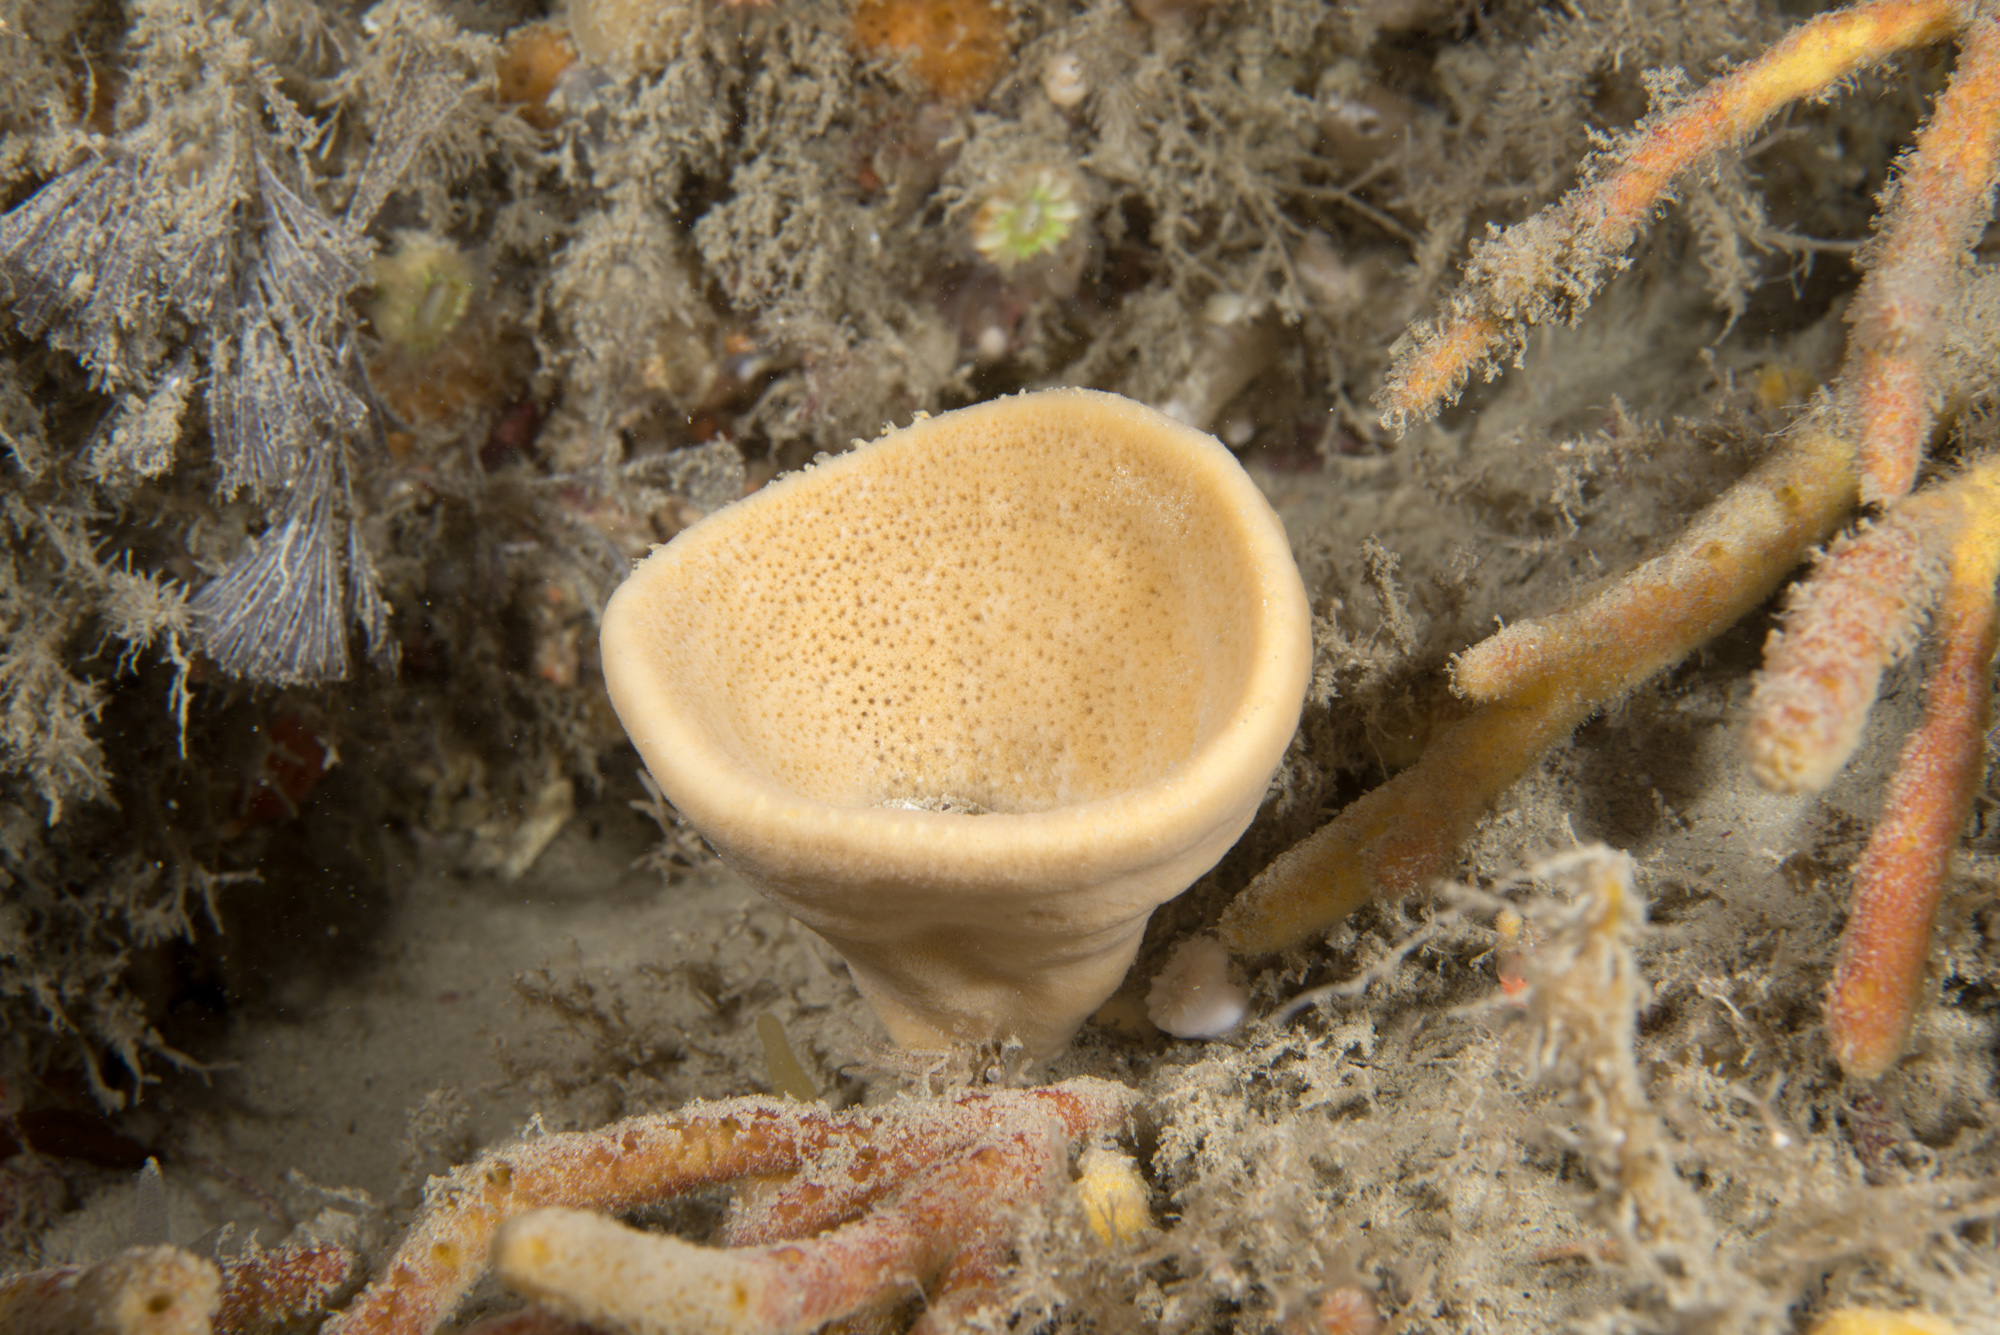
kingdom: Animalia
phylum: Porifera
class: Demospongiae
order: Axinellida
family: Axinellidae
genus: Axinella
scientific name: Axinella infundibuliformis
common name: North atlantic cup sponge
